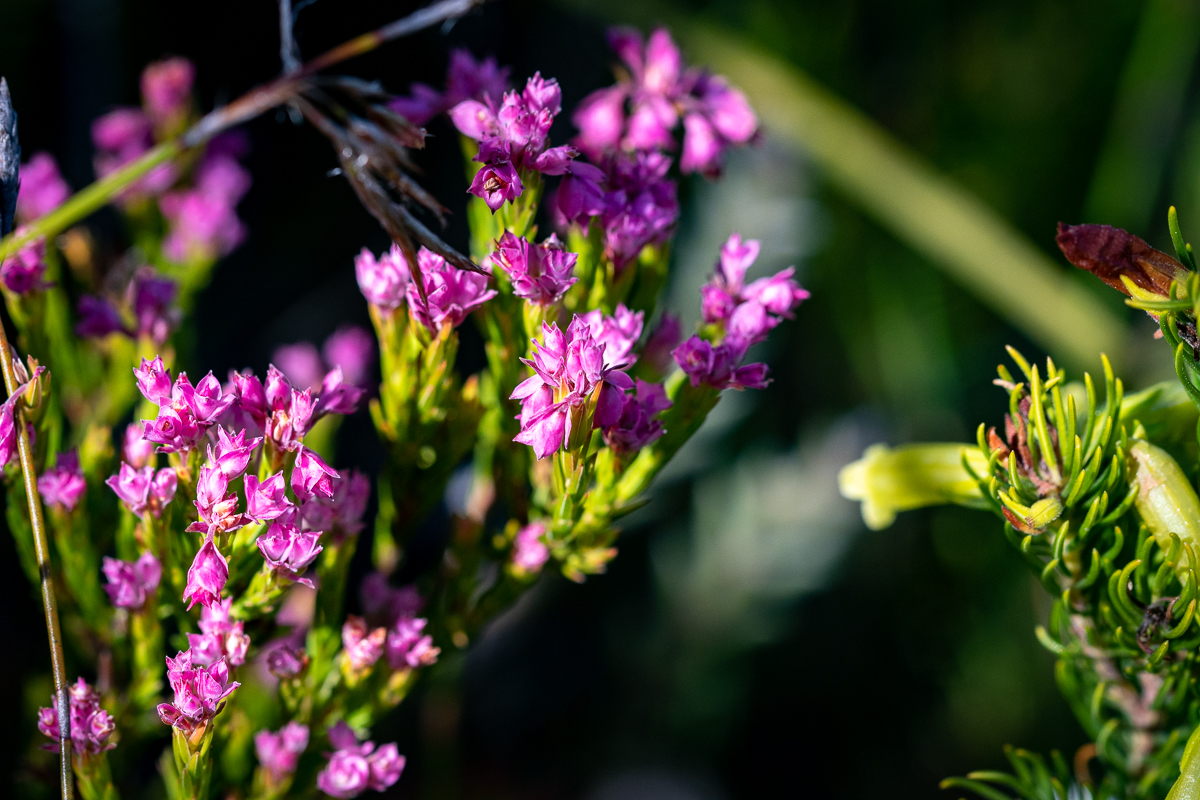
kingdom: Plantae
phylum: Tracheophyta
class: Magnoliopsida
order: Ericales
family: Ericaceae
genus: Erica
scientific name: Erica corifolia
